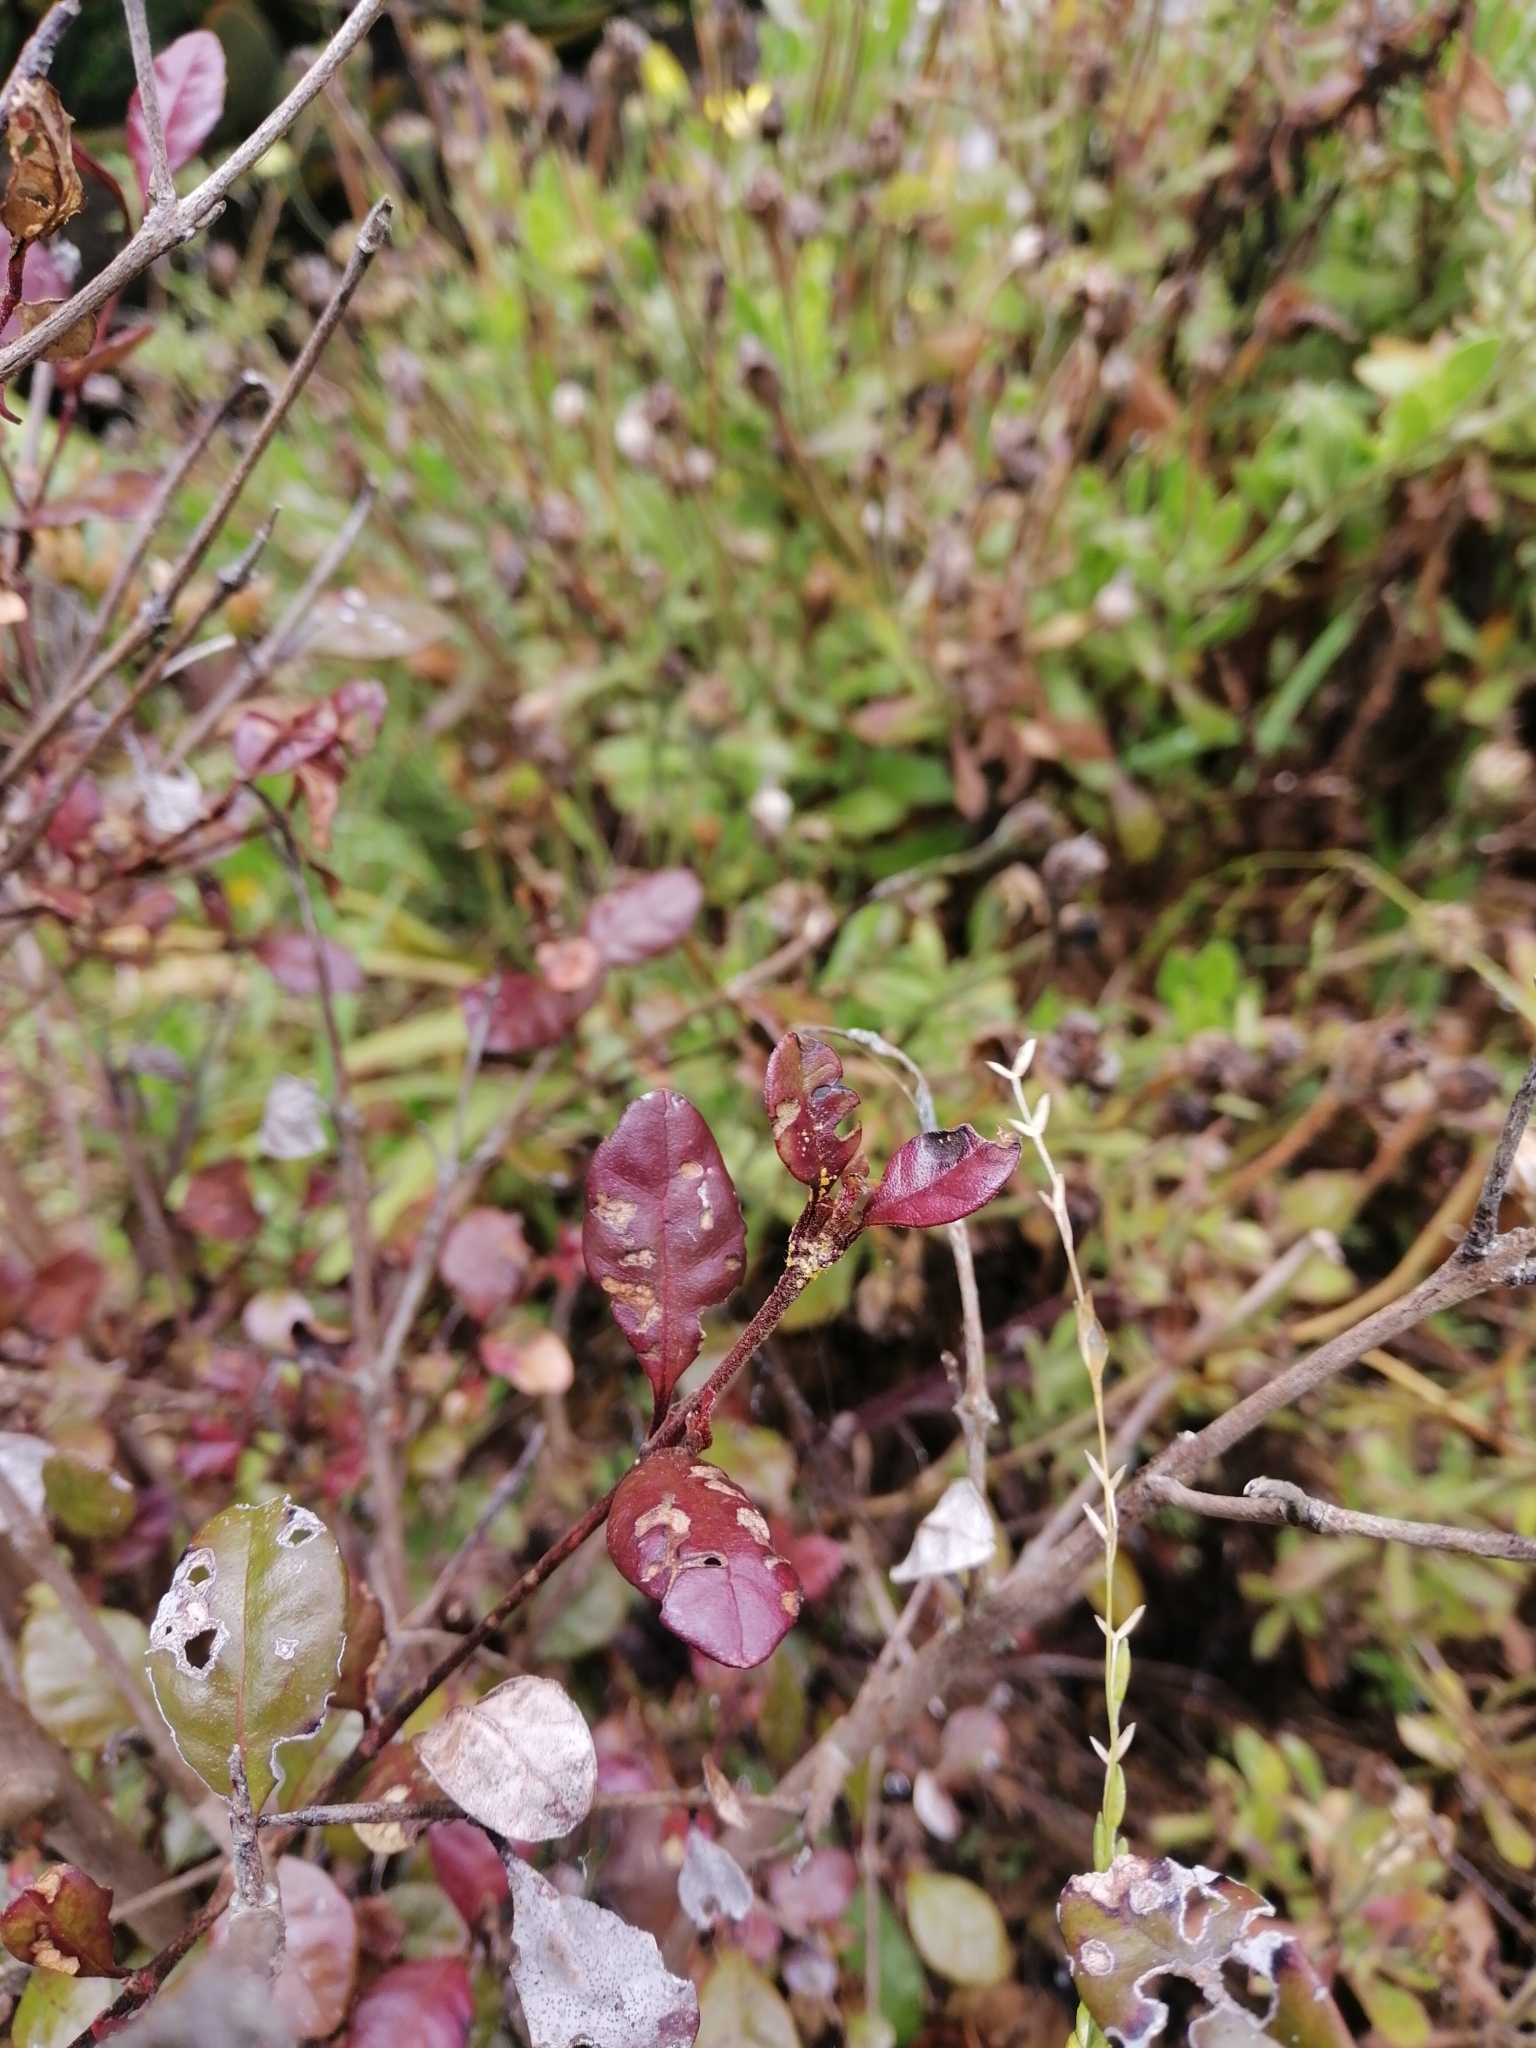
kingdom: Fungi
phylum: Basidiomycota
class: Pucciniomycetes
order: Pucciniales
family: Sphaerophragmiaceae
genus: Austropuccinia
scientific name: Austropuccinia psidii
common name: Myrtle rust
